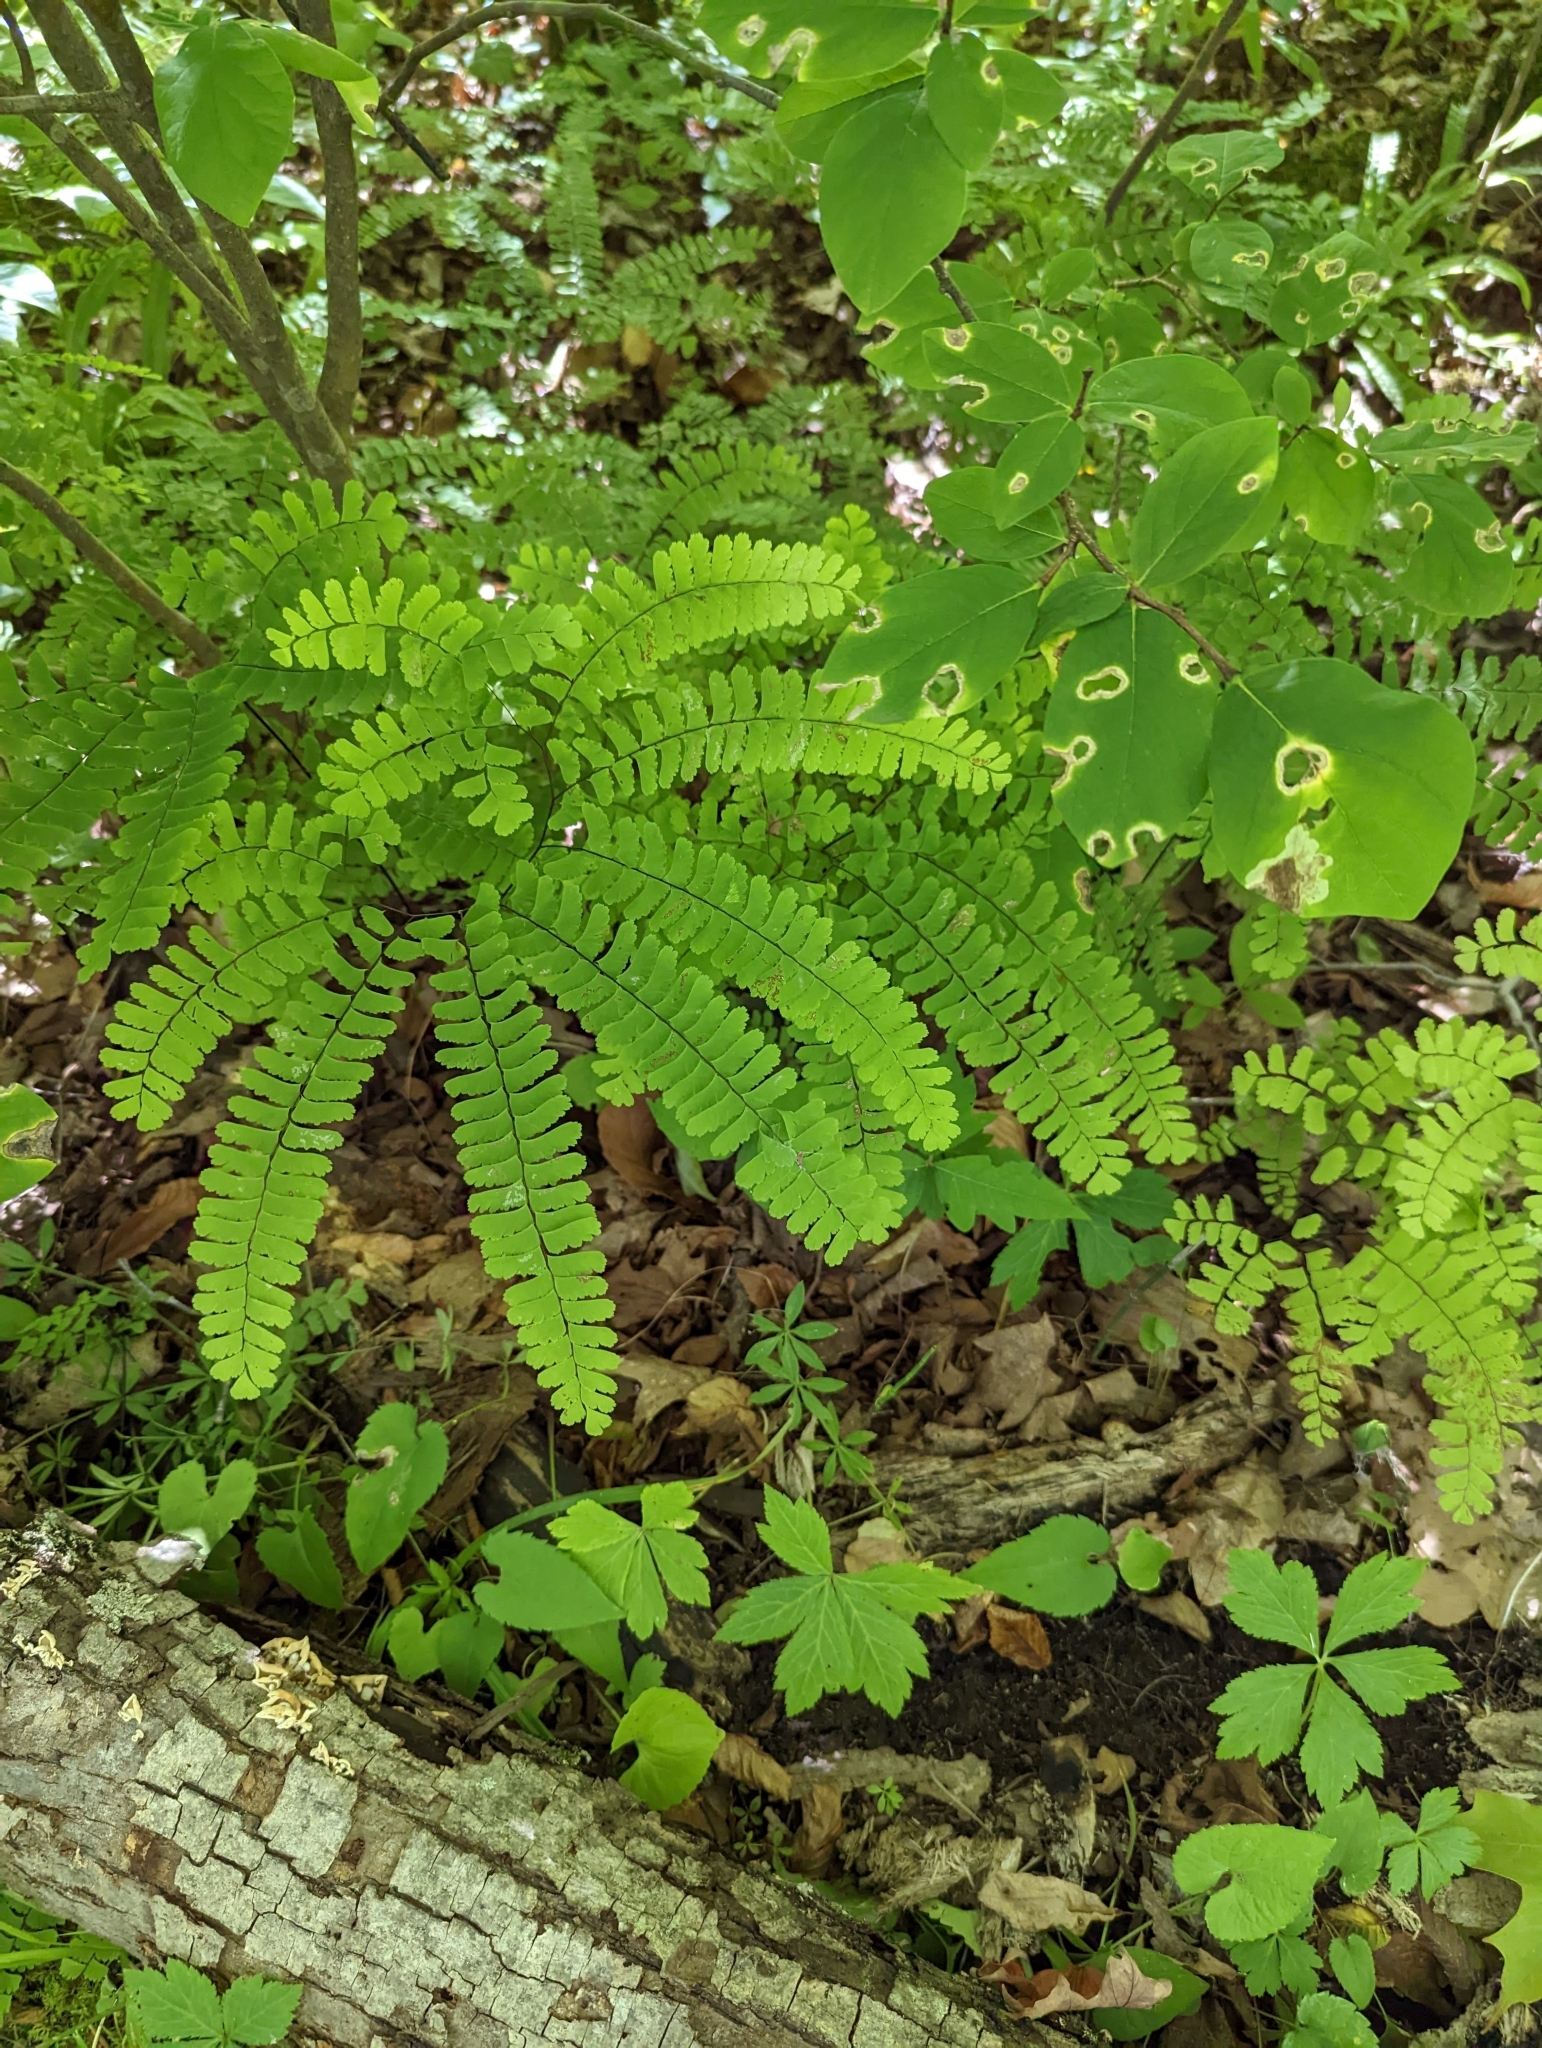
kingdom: Plantae
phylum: Tracheophyta
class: Polypodiopsida
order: Polypodiales
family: Pteridaceae
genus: Adiantum
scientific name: Adiantum pedatum
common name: Five-finger fern
